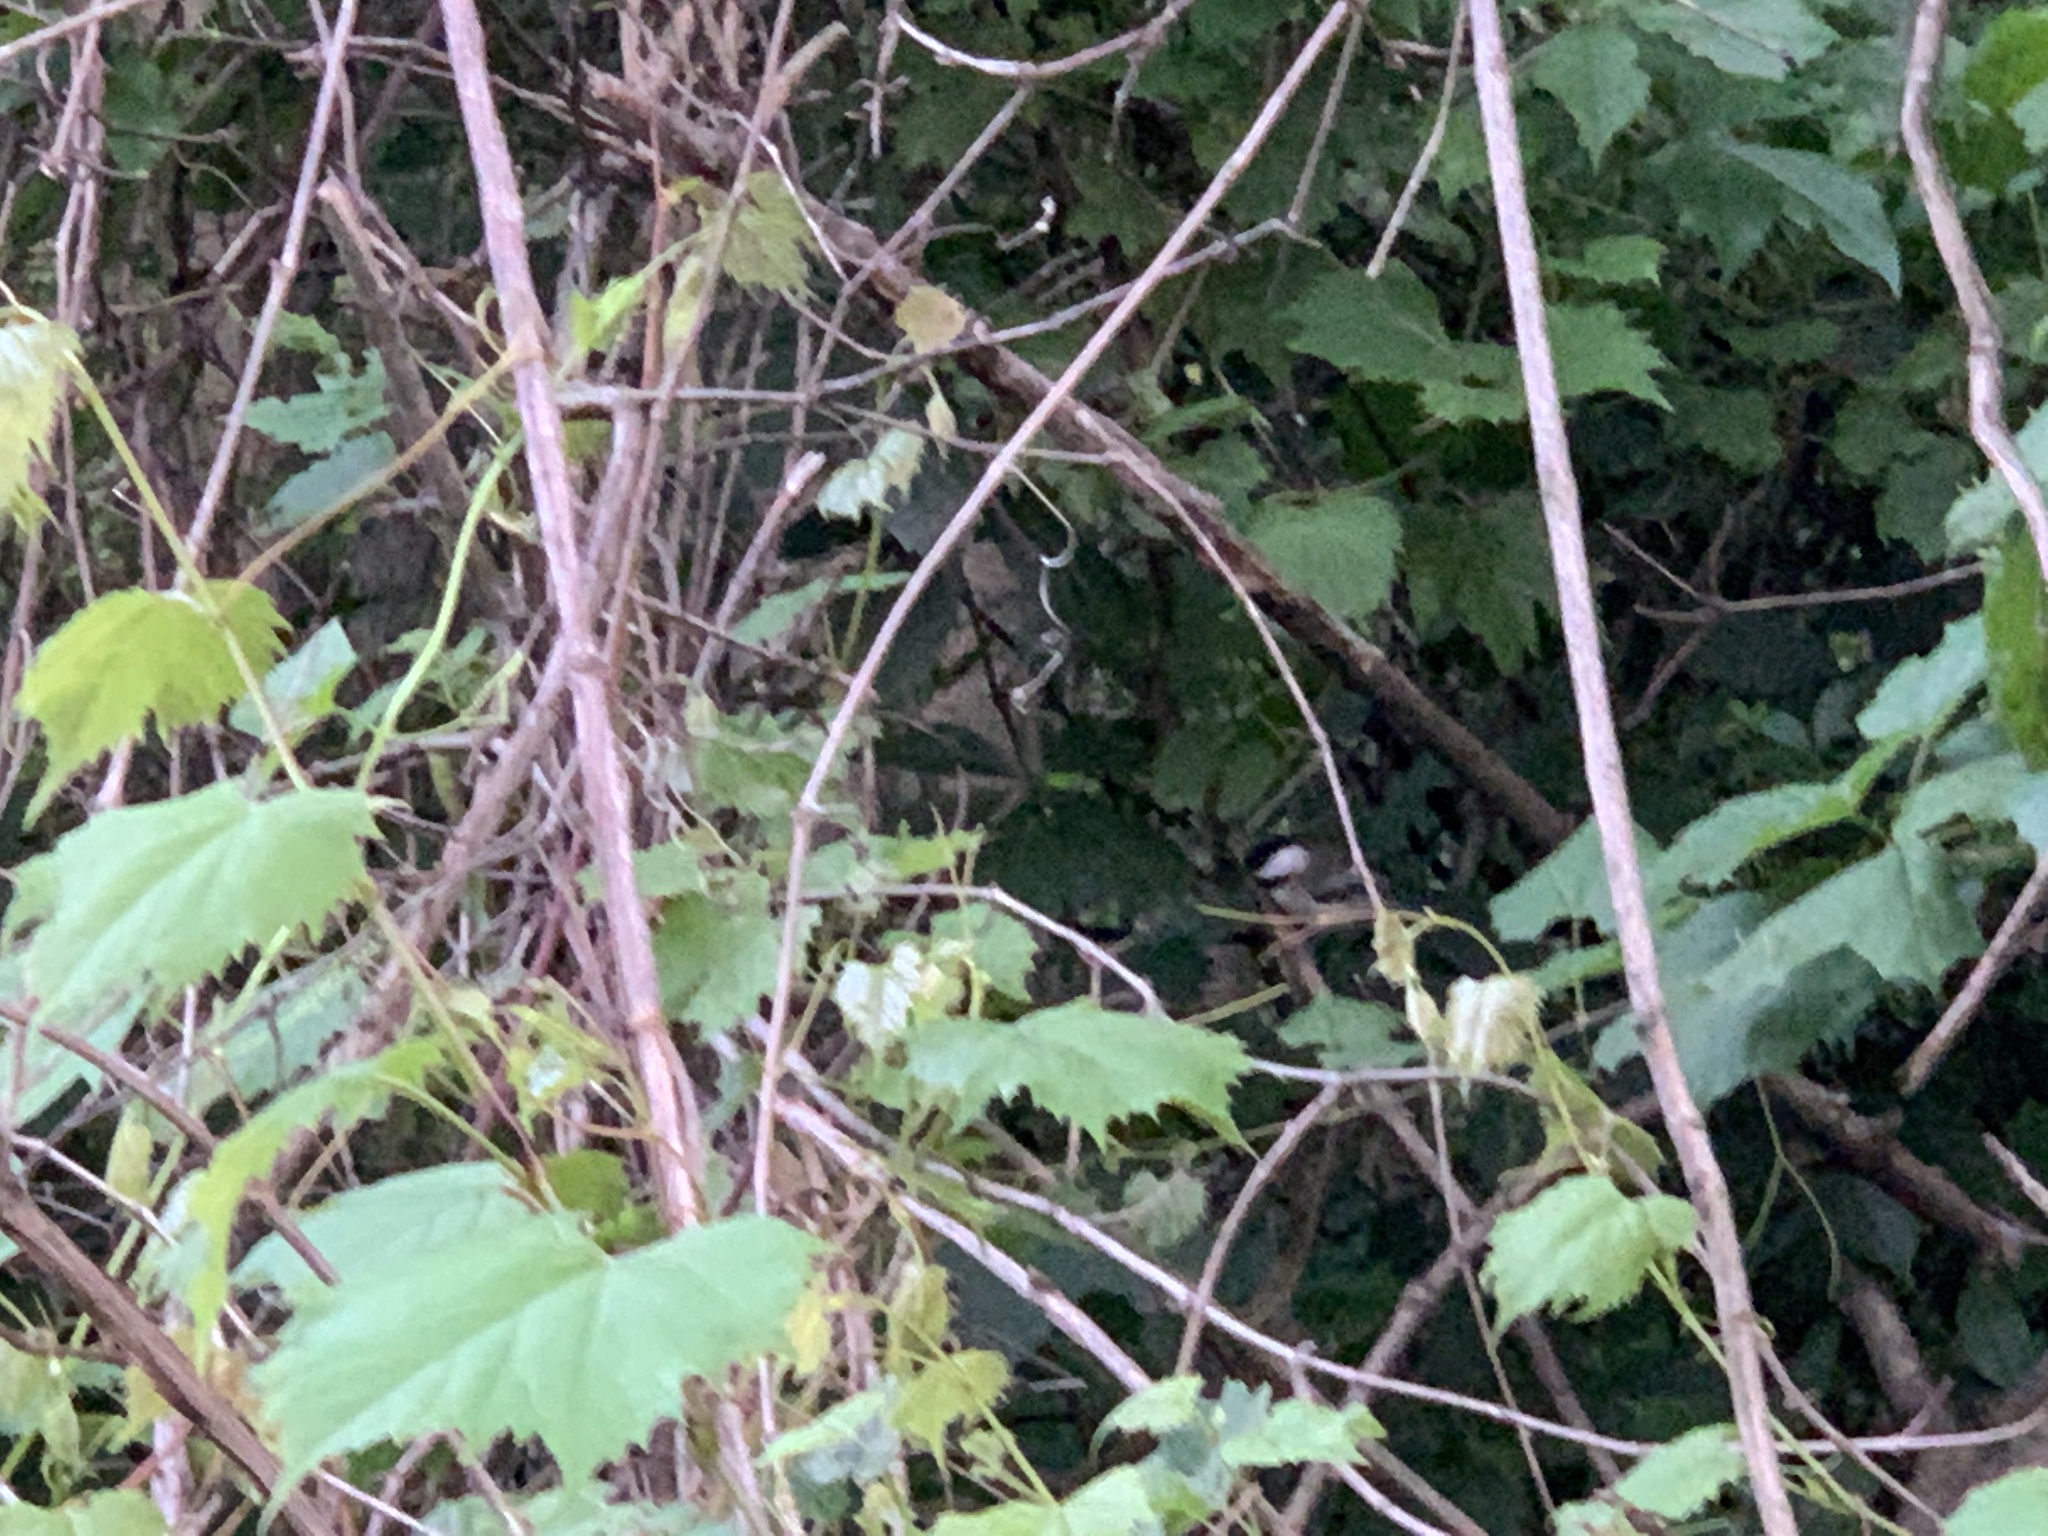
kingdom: Animalia
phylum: Chordata
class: Aves
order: Passeriformes
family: Paridae
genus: Poecile
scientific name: Poecile atricapillus
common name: Black-capped chickadee
